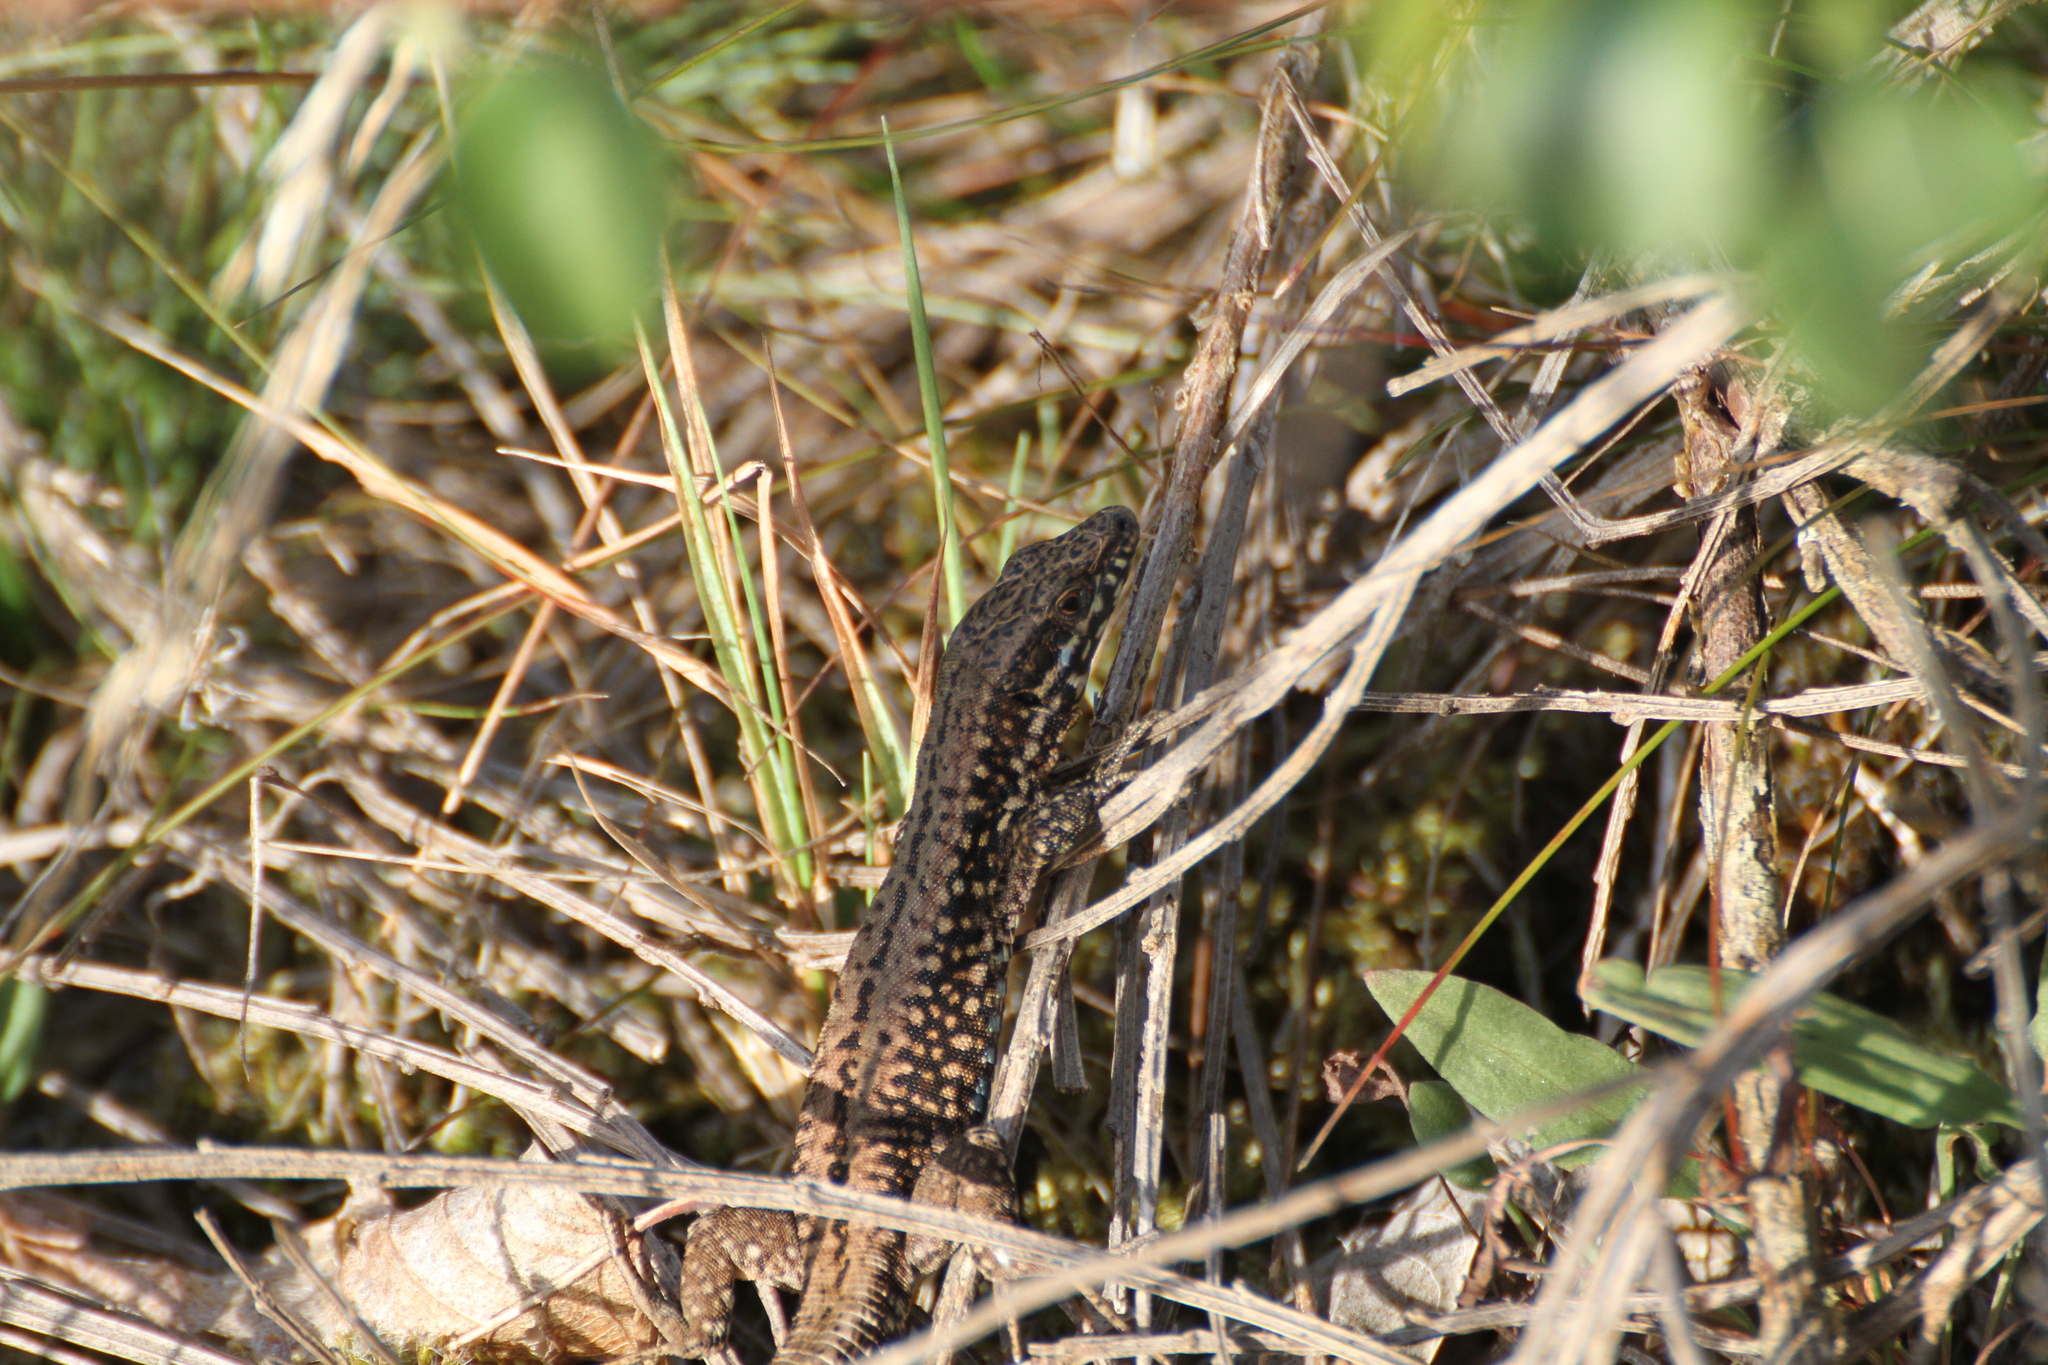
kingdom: Animalia
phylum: Chordata
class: Squamata
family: Lacertidae
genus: Podarcis
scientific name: Podarcis muralis
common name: Common wall lizard
